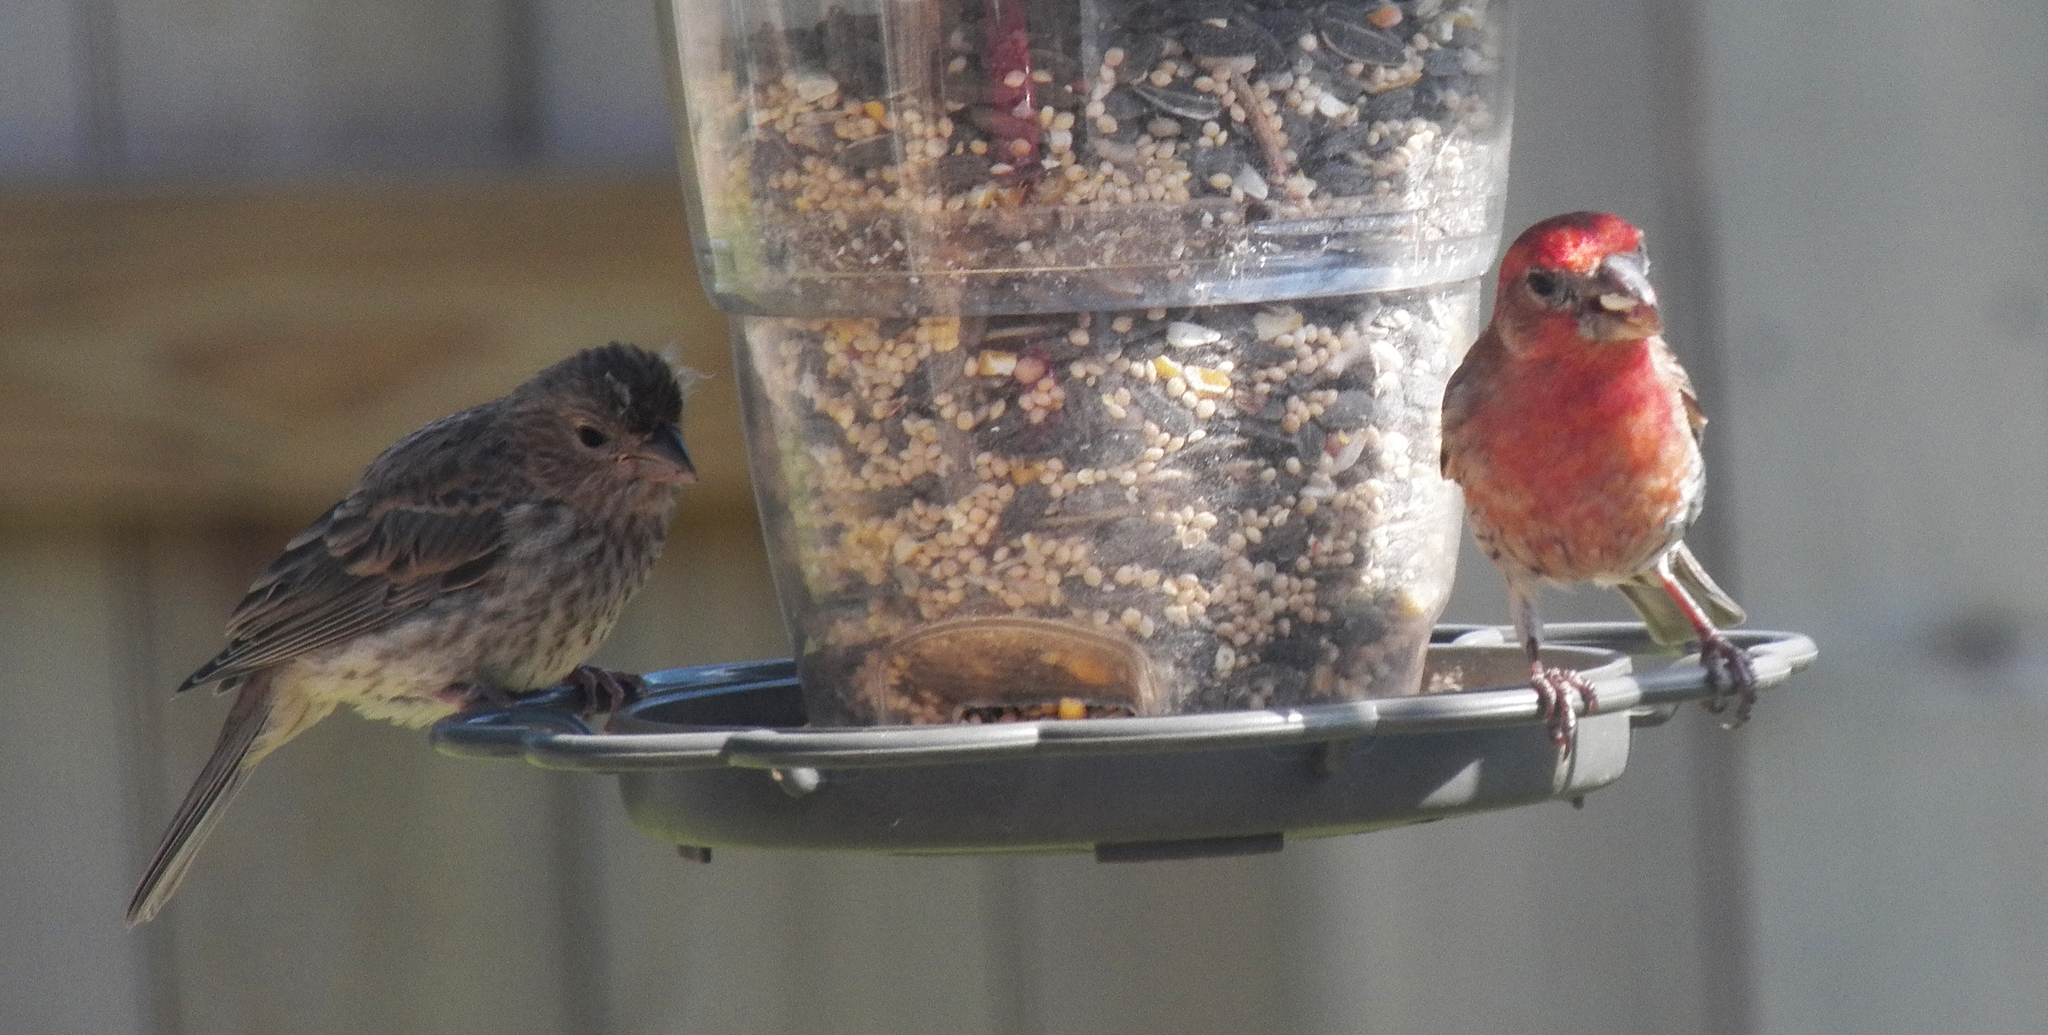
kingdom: Animalia
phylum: Chordata
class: Aves
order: Passeriformes
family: Fringillidae
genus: Haemorhous
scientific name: Haemorhous mexicanus
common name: House finch
